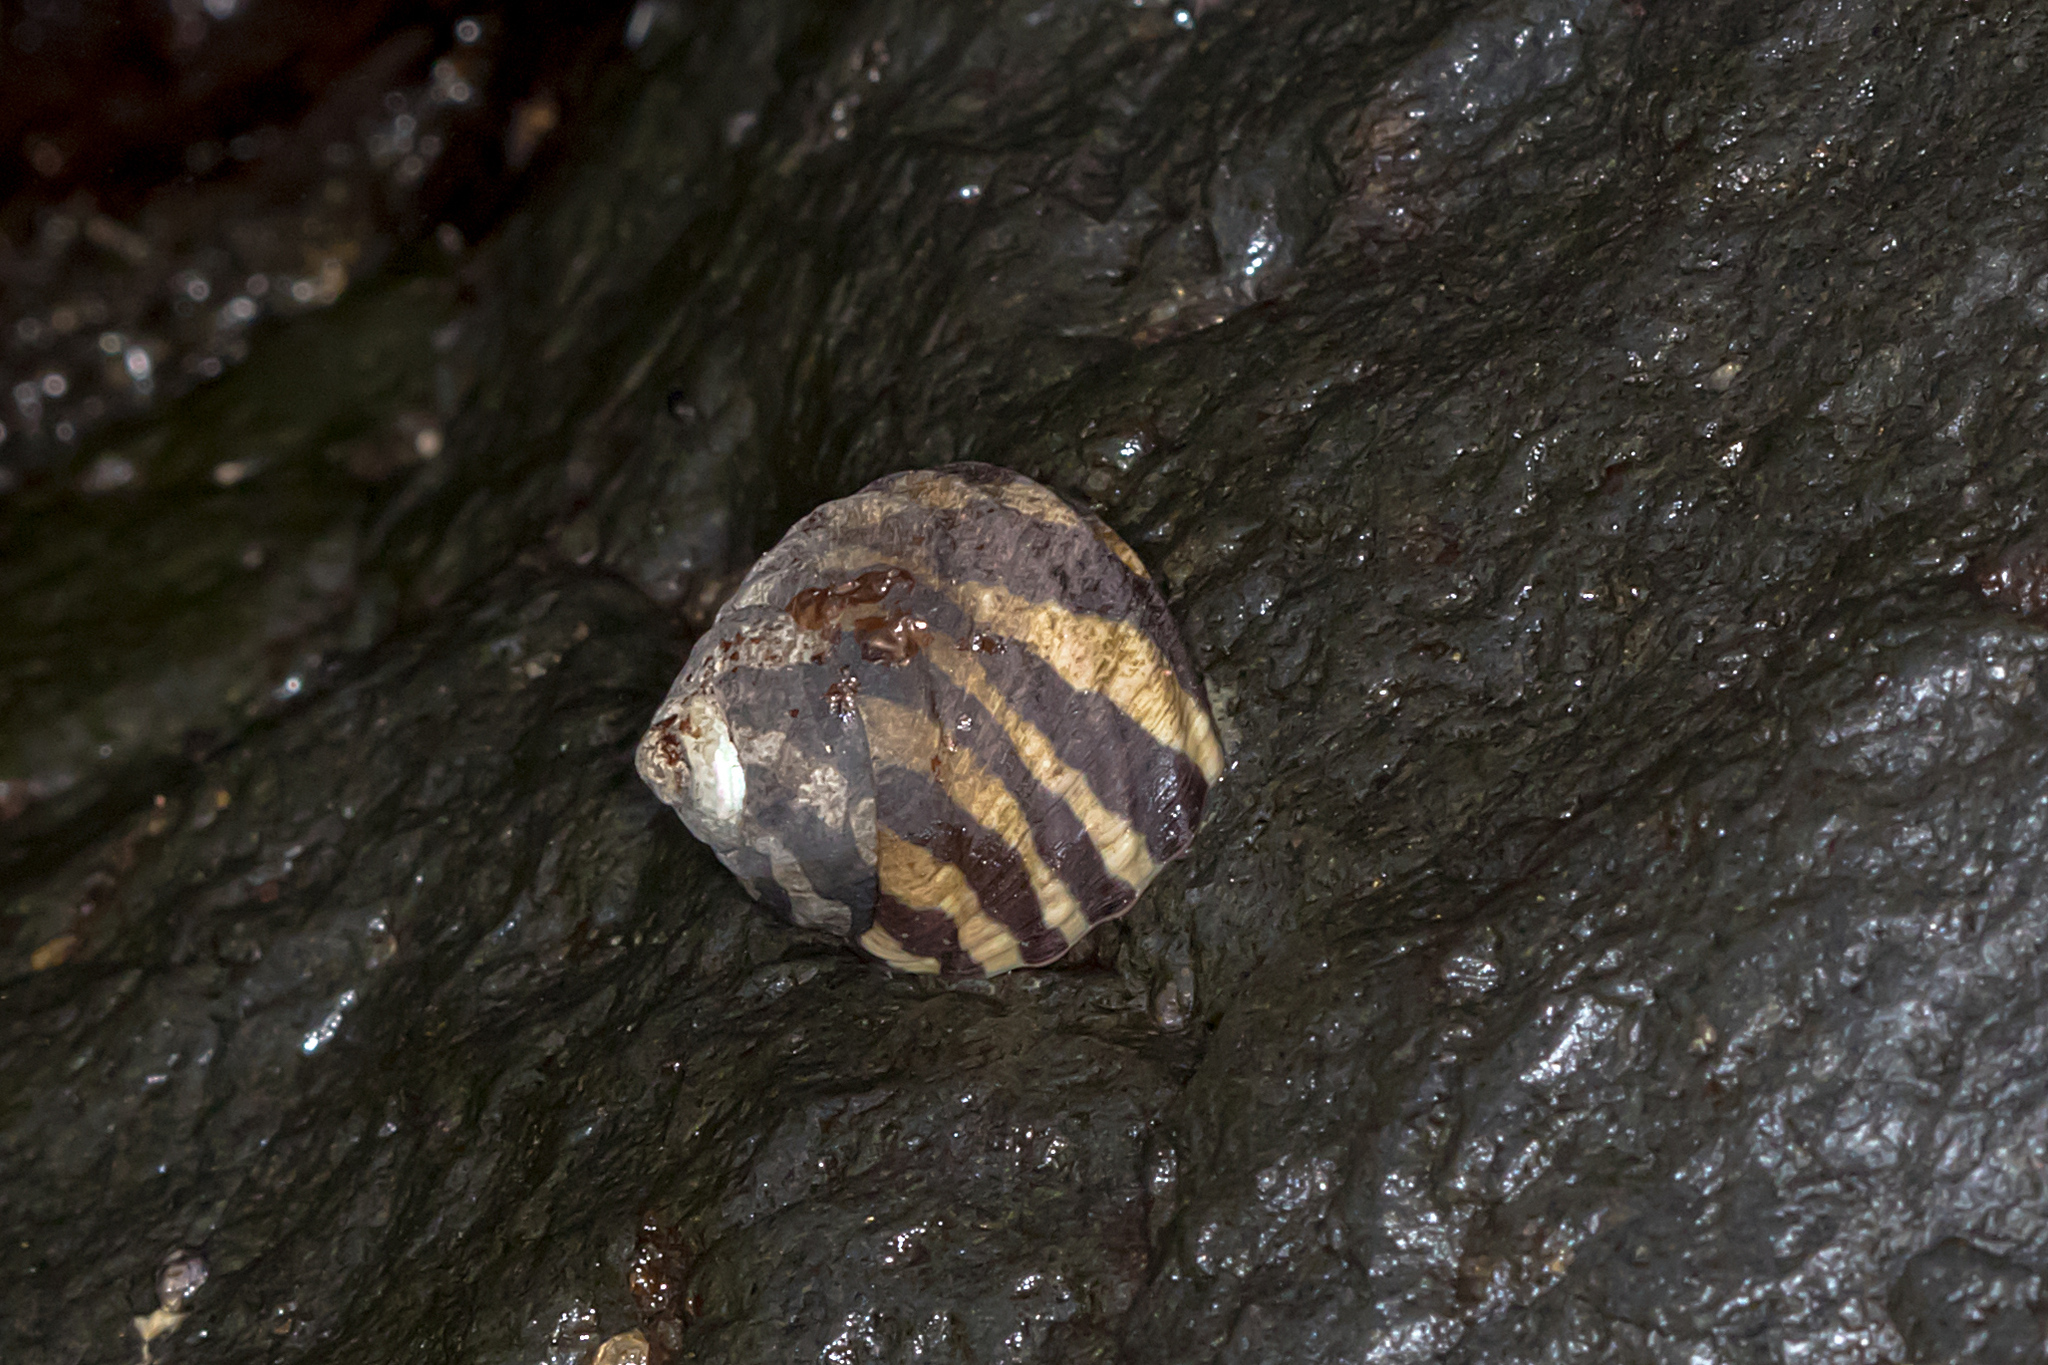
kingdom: Animalia
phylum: Mollusca
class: Gastropoda
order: Trochida
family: Trochidae
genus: Austrocochlea
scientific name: Austrocochlea porcata
